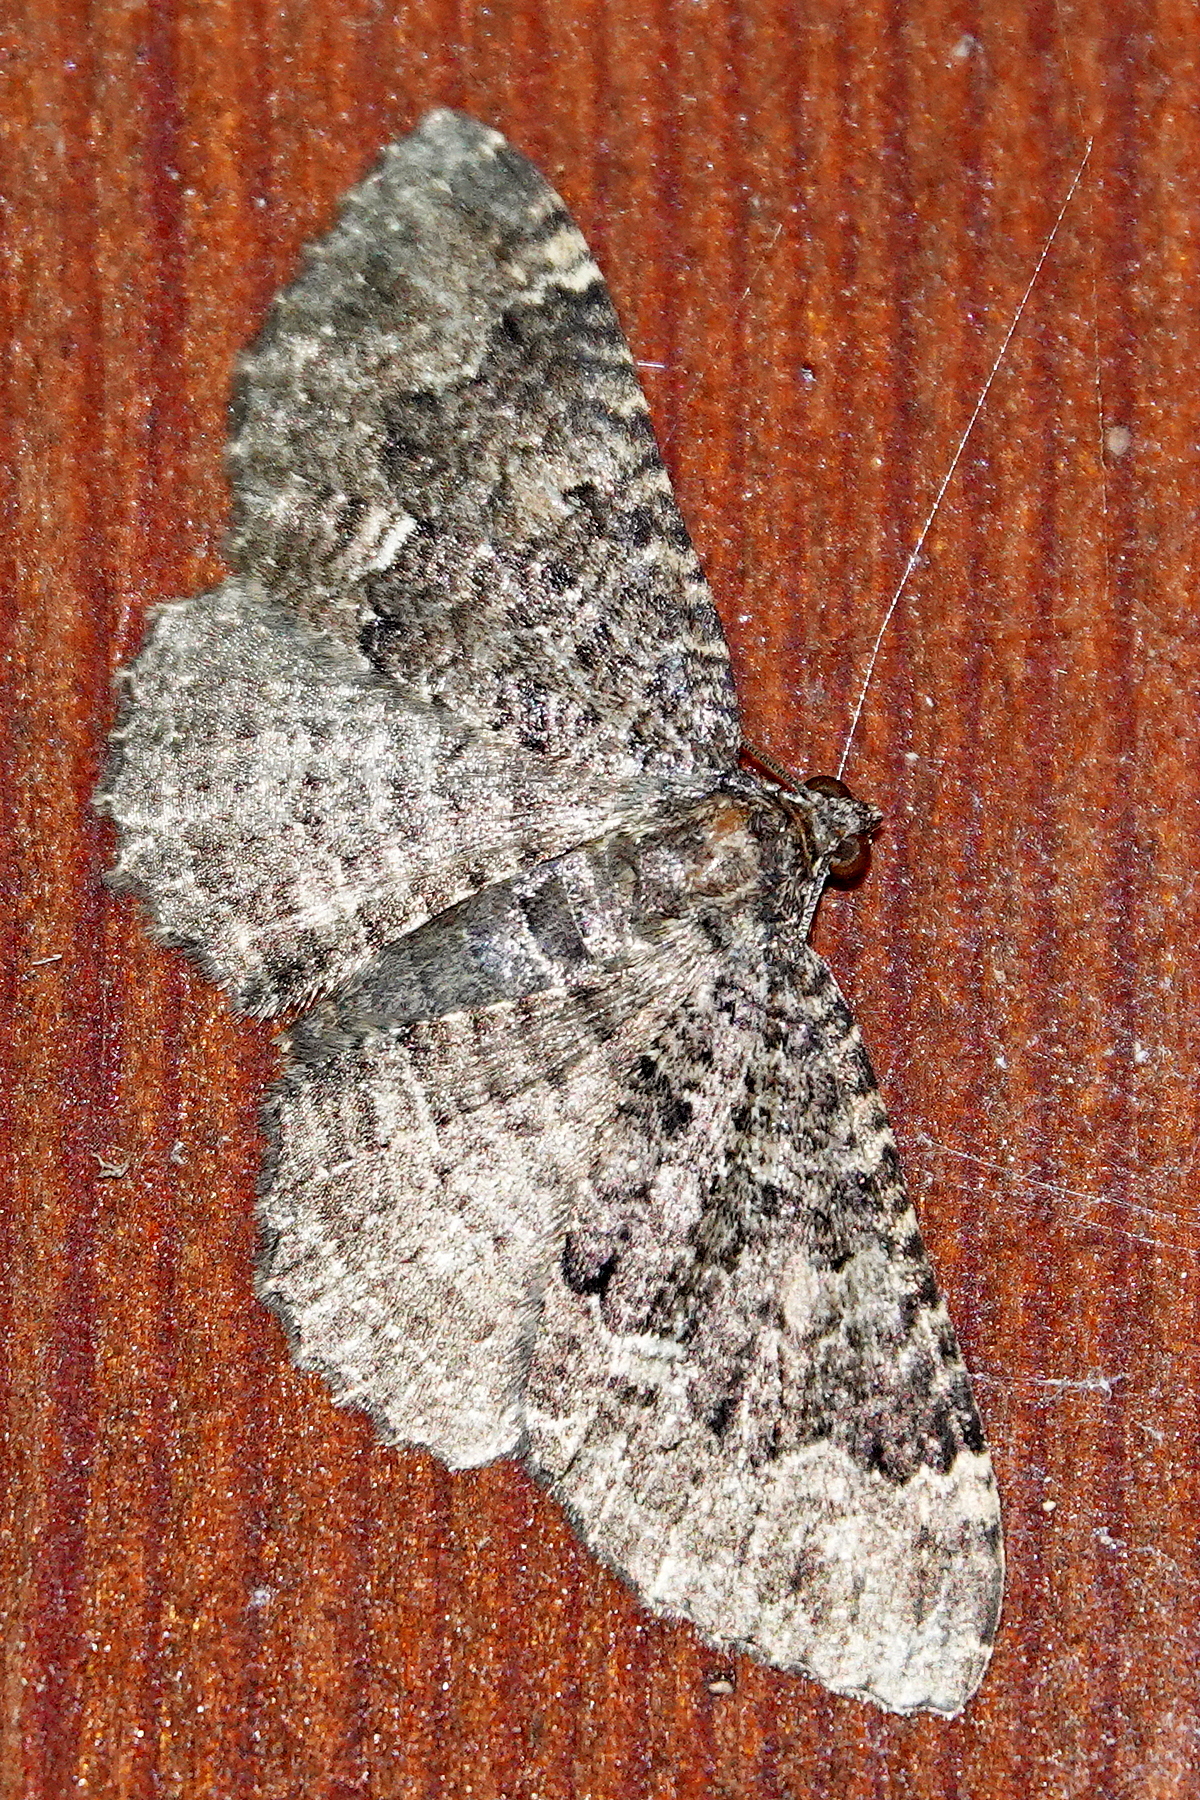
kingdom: Animalia
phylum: Arthropoda
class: Insecta
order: Lepidoptera
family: Geometridae
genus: Visiana
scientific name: Visiana brujata
